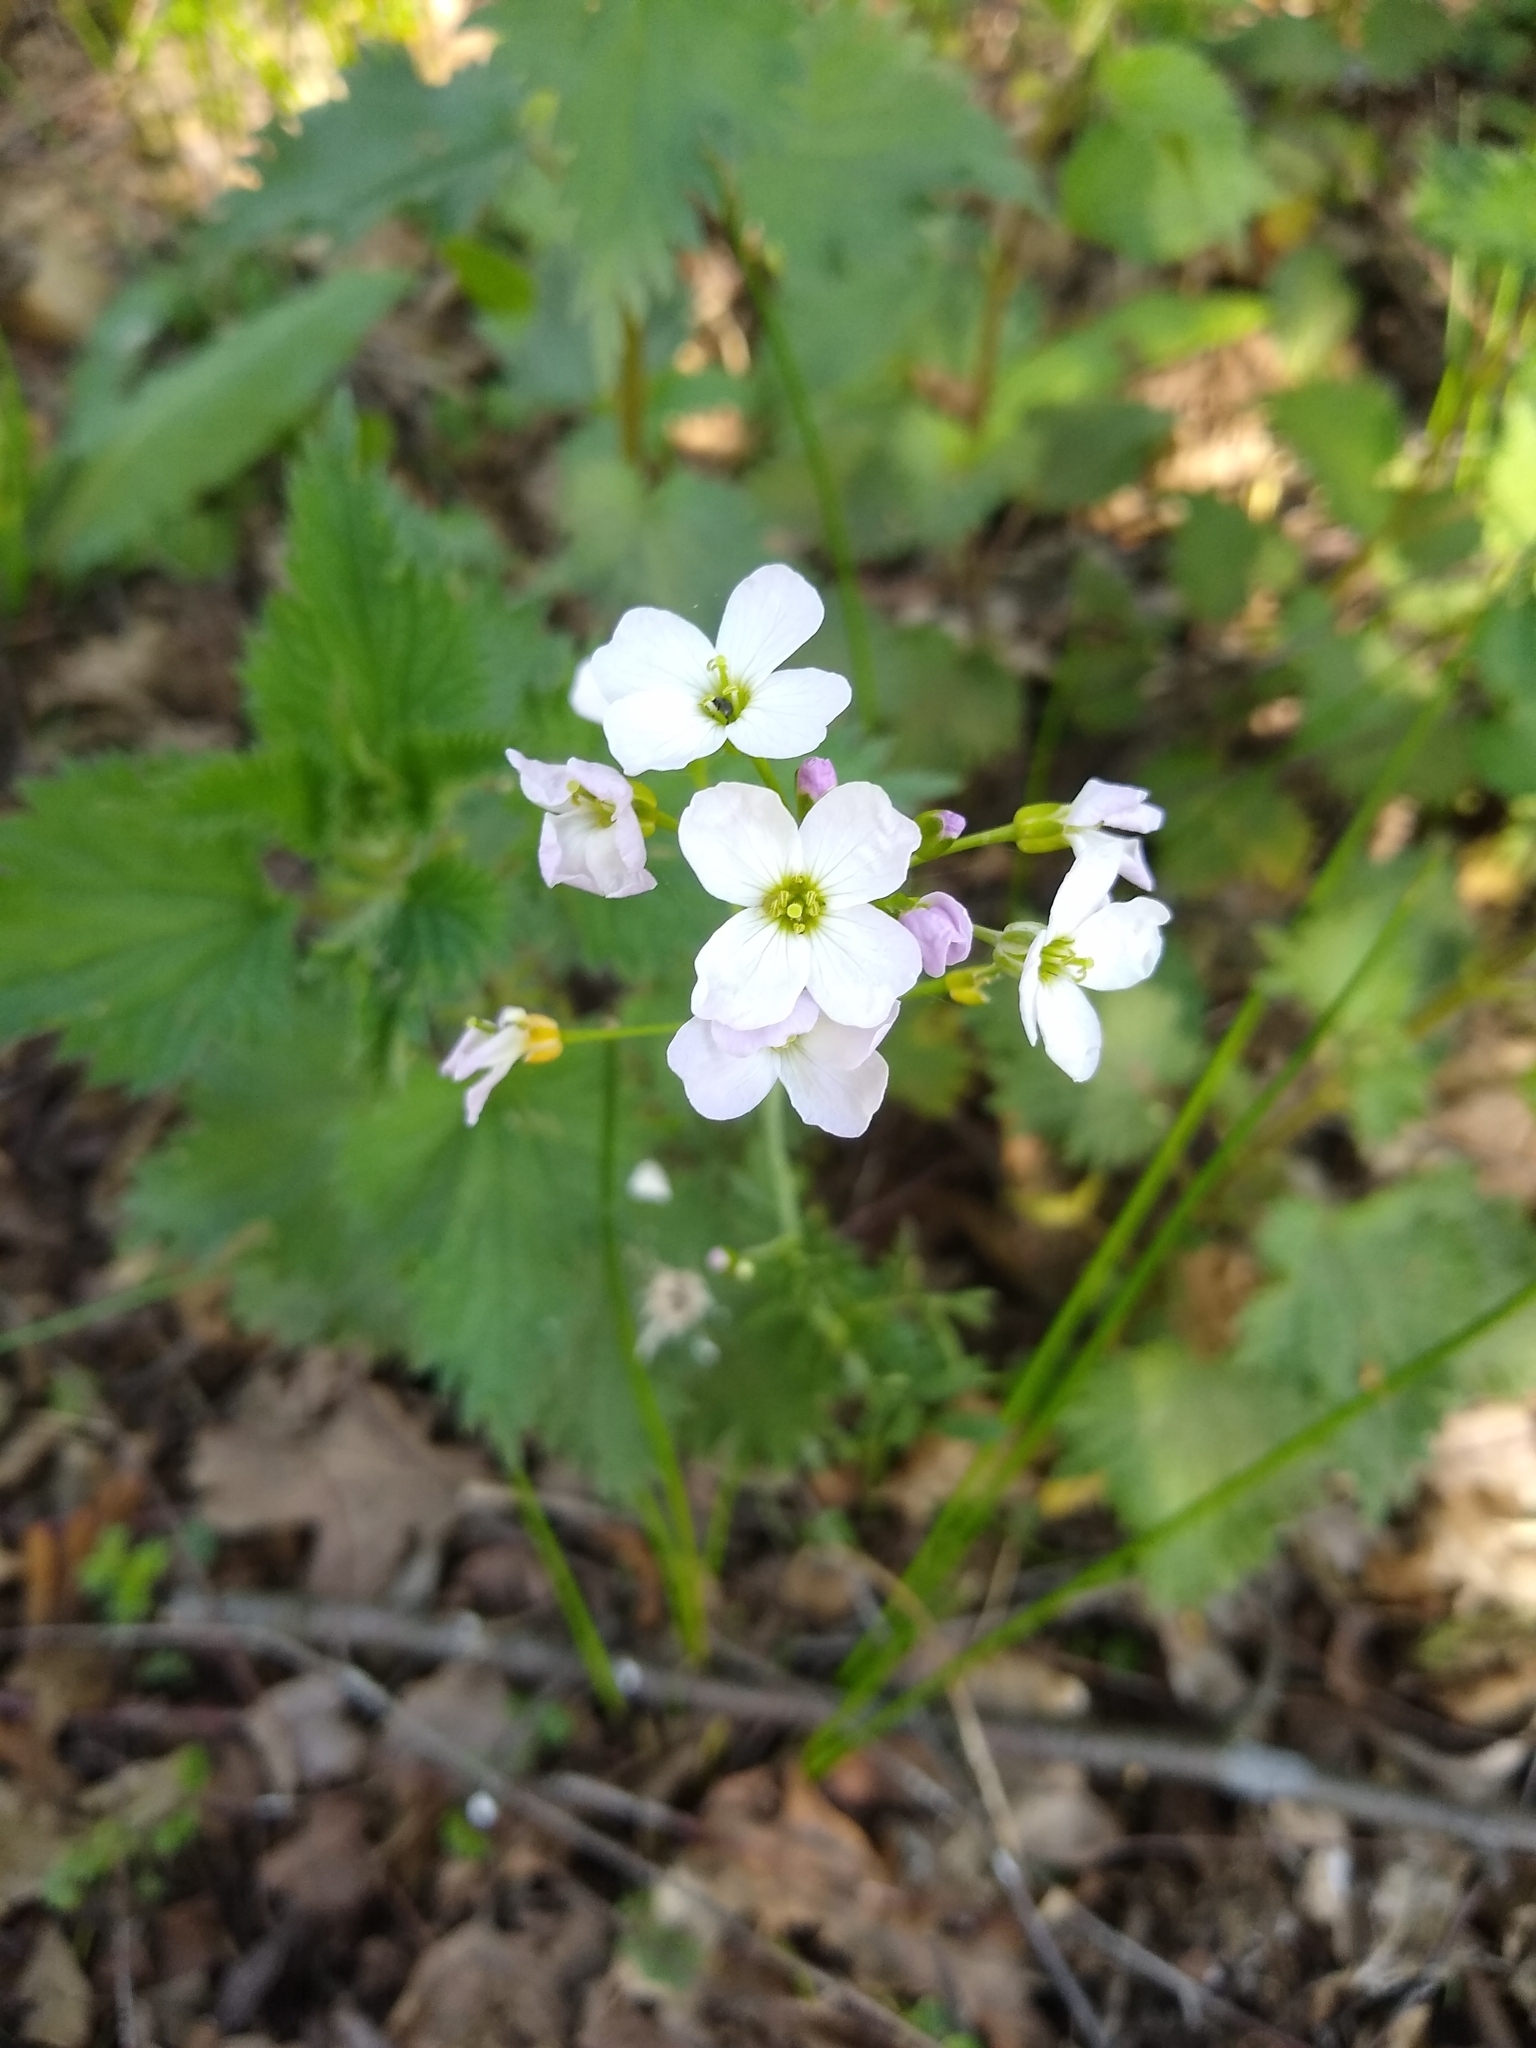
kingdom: Plantae
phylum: Tracheophyta
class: Magnoliopsida
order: Brassicales
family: Brassicaceae
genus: Cardamine
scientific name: Cardamine pratensis
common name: Cuckoo flower
